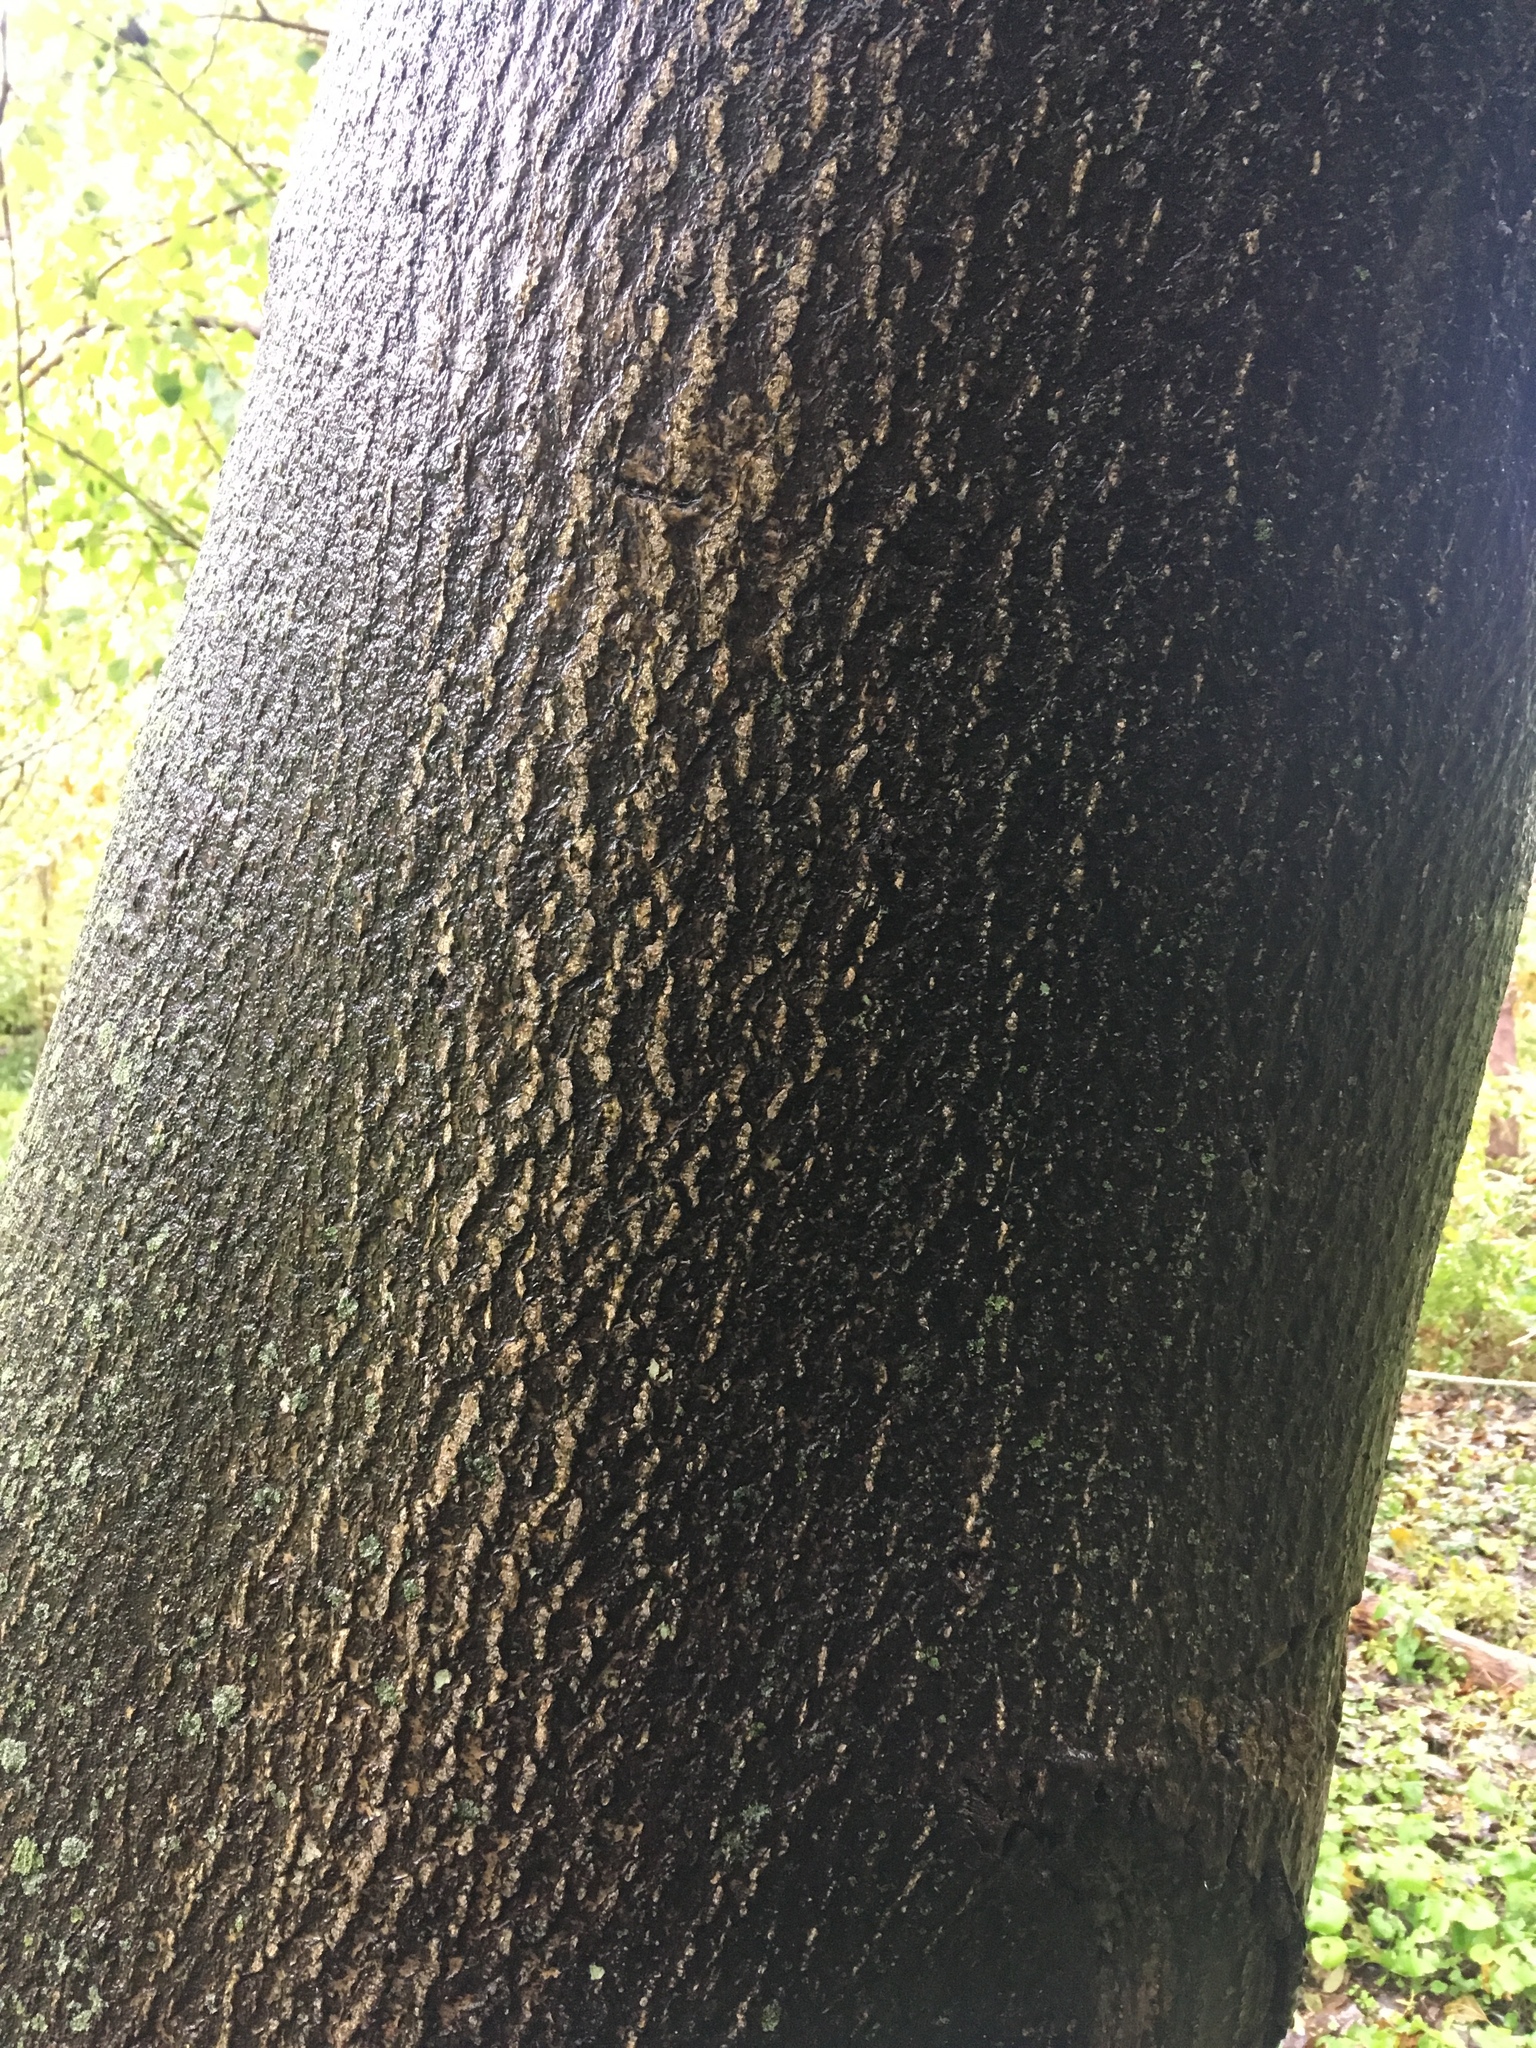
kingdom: Plantae
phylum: Tracheophyta
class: Magnoliopsida
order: Sapindales
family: Simaroubaceae
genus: Ailanthus
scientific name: Ailanthus altissima
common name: Tree-of-heaven
